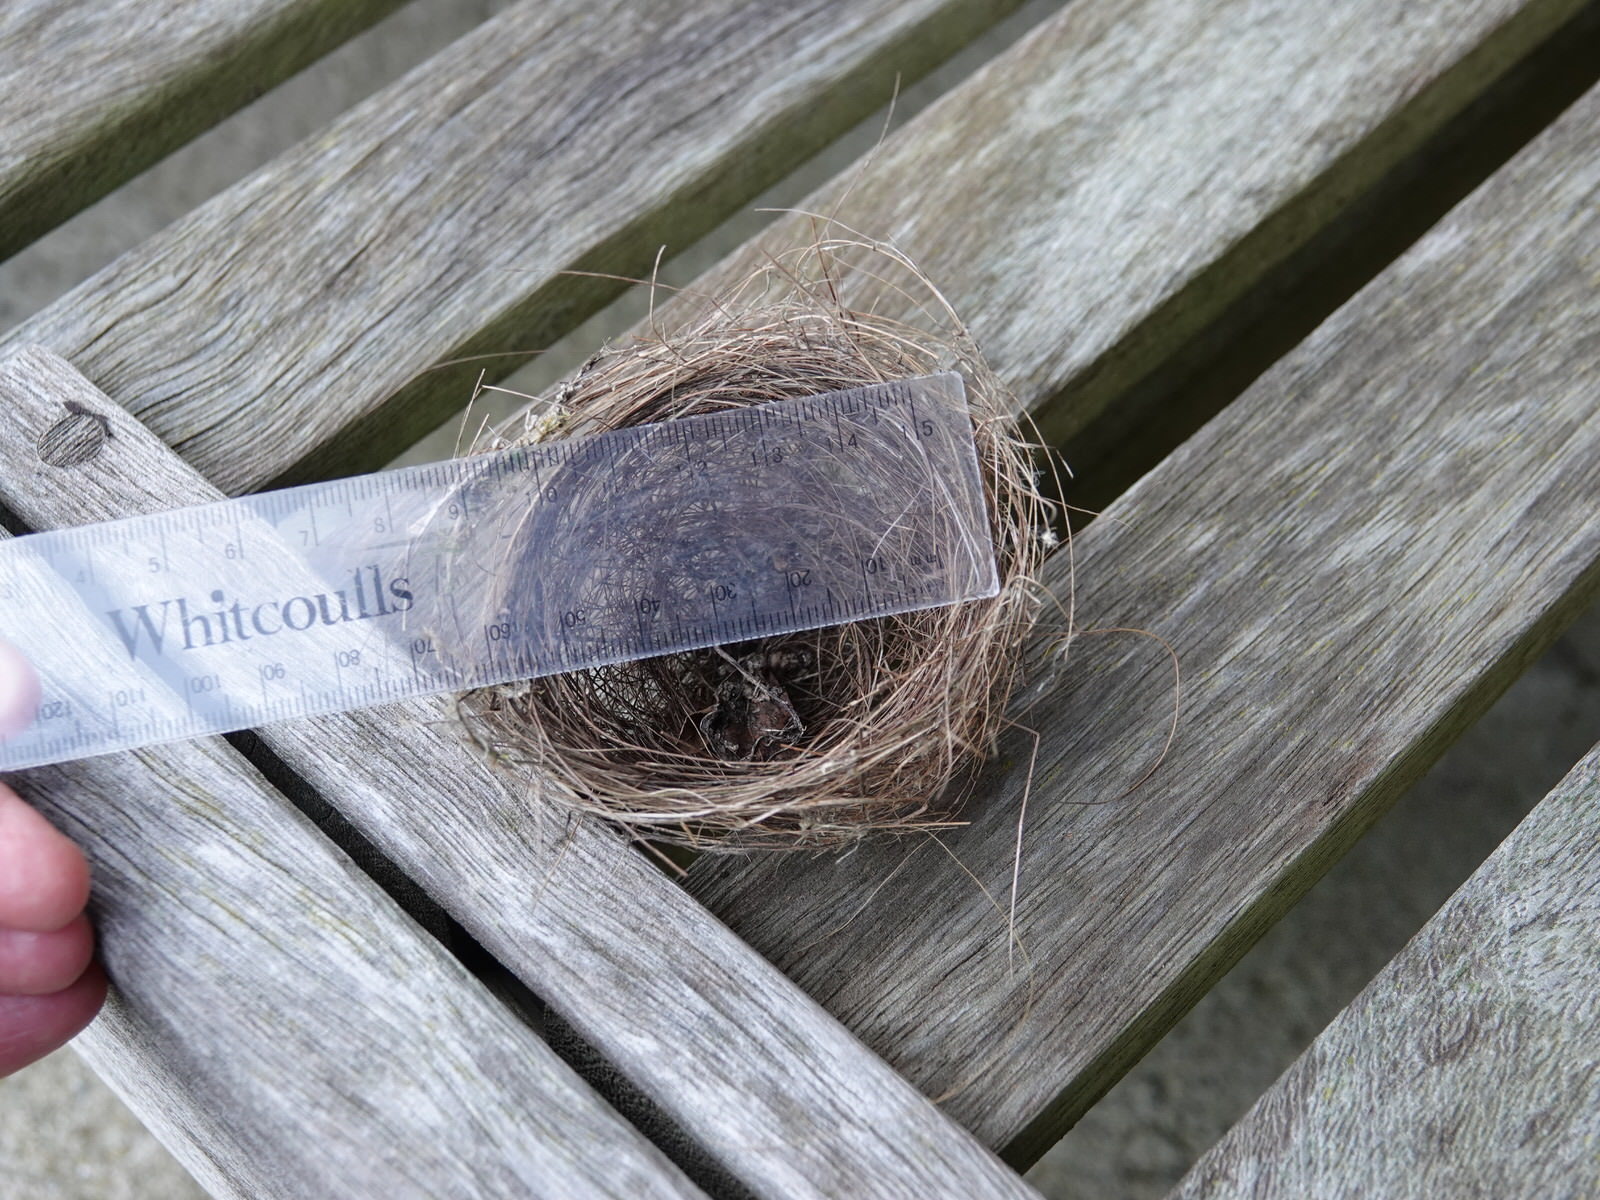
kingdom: Animalia
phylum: Chordata
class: Aves
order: Passeriformes
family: Zosteropidae
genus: Zosterops
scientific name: Zosterops lateralis
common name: Silvereye
